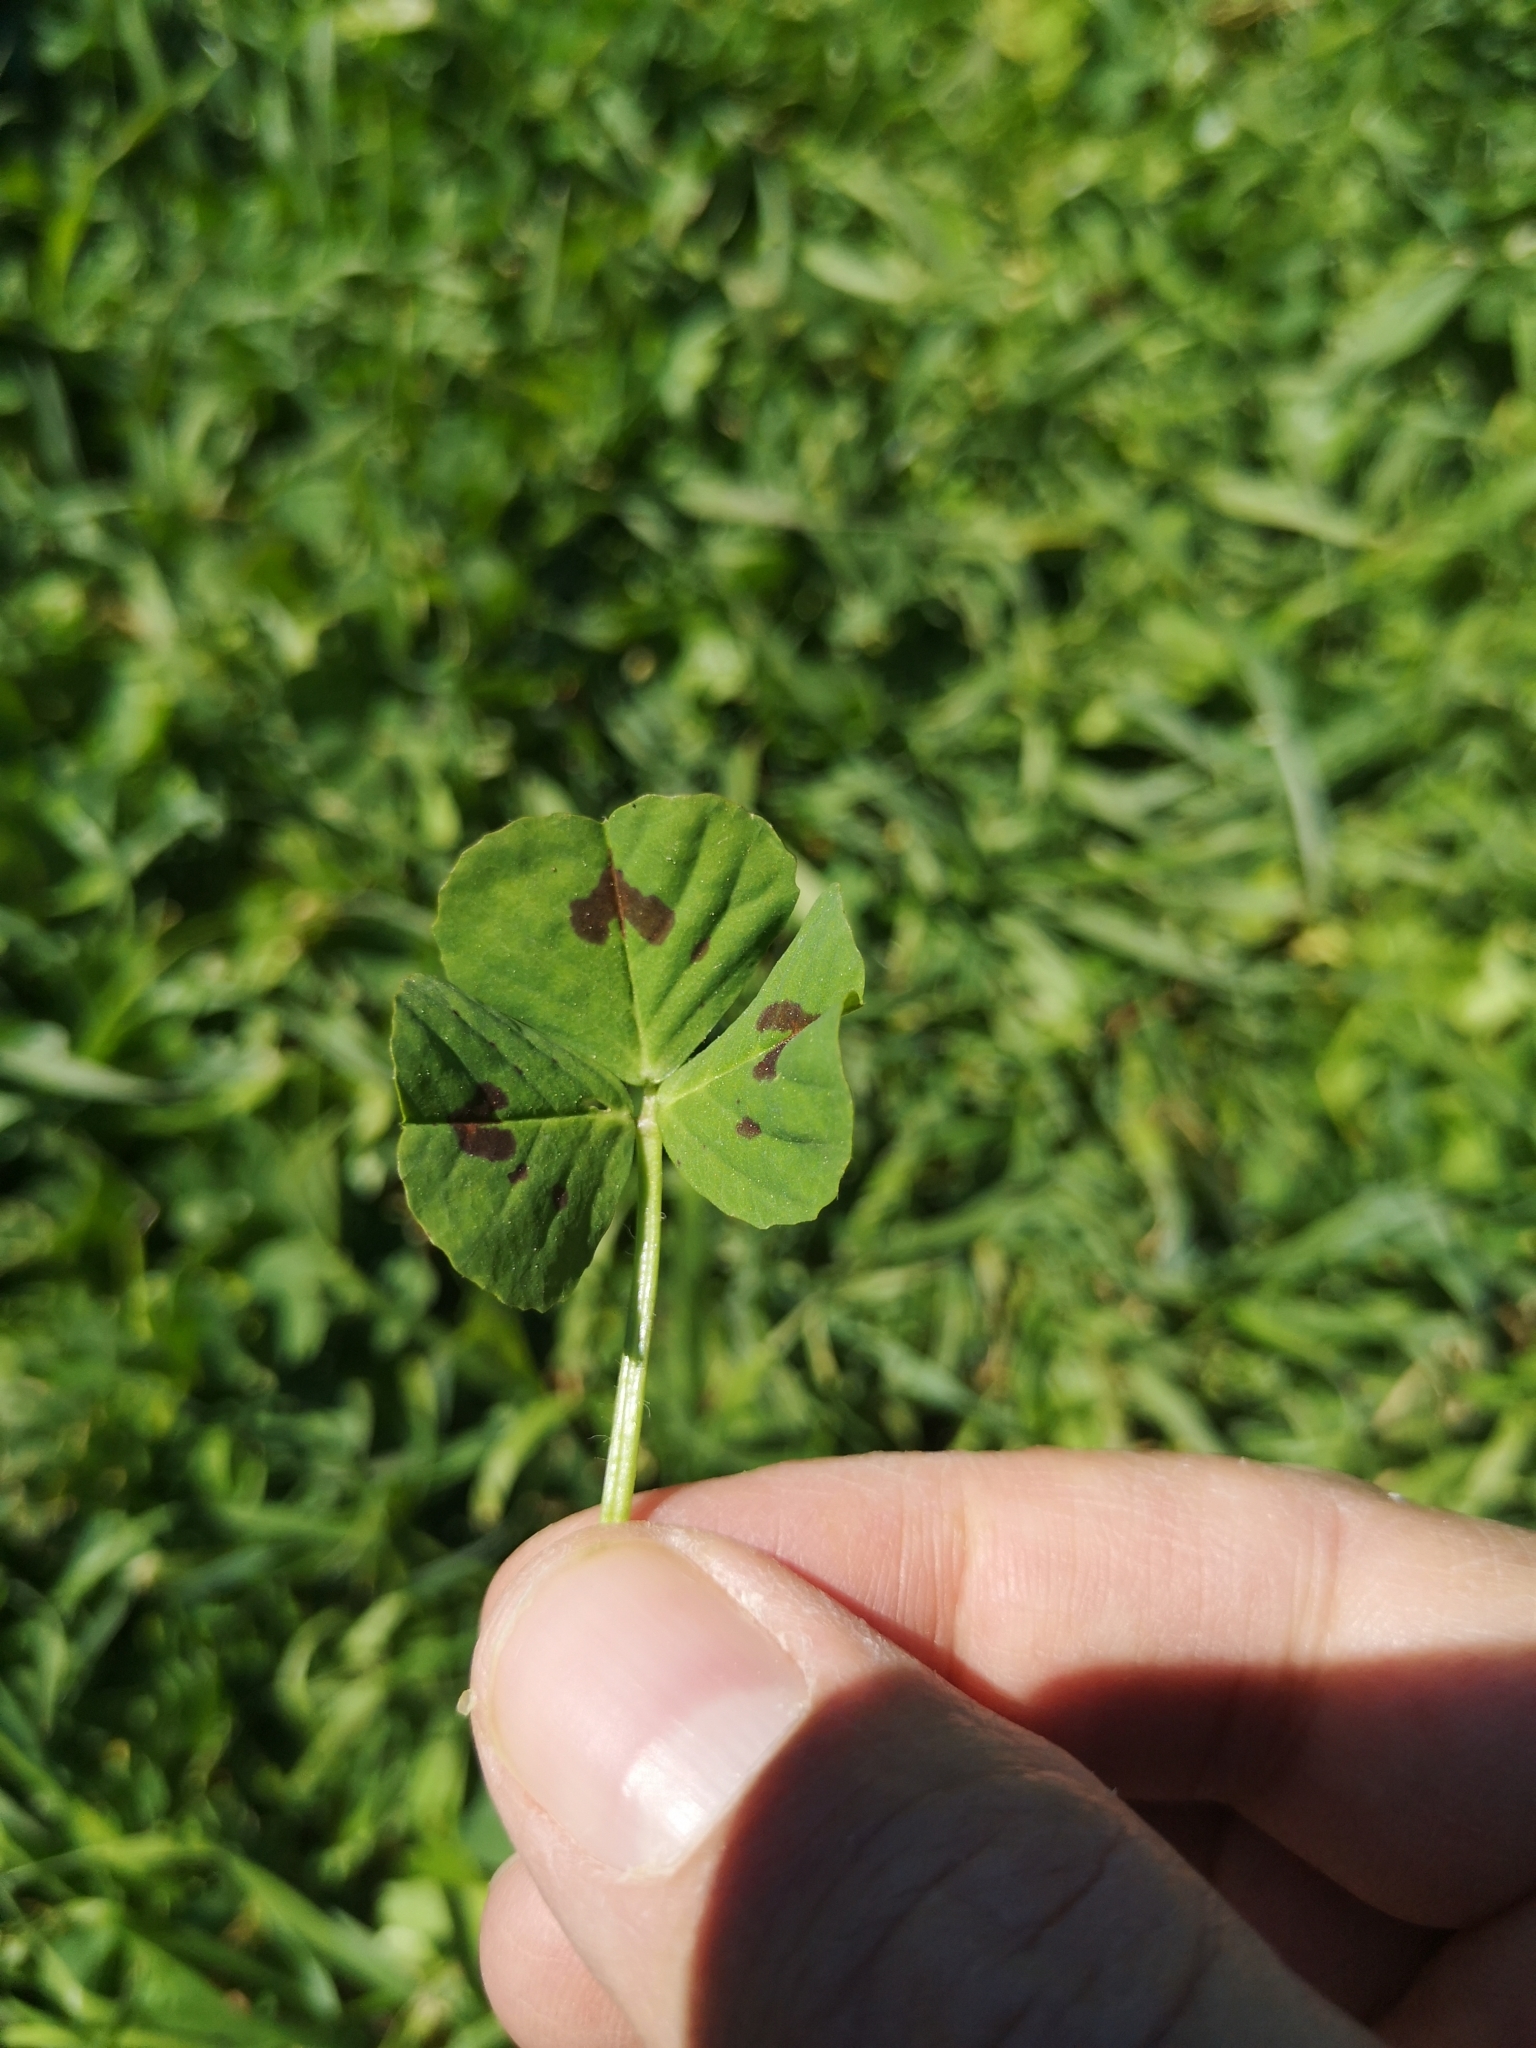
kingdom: Plantae
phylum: Tracheophyta
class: Magnoliopsida
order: Fabales
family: Fabaceae
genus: Medicago
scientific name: Medicago arabica
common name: Spotted medick
